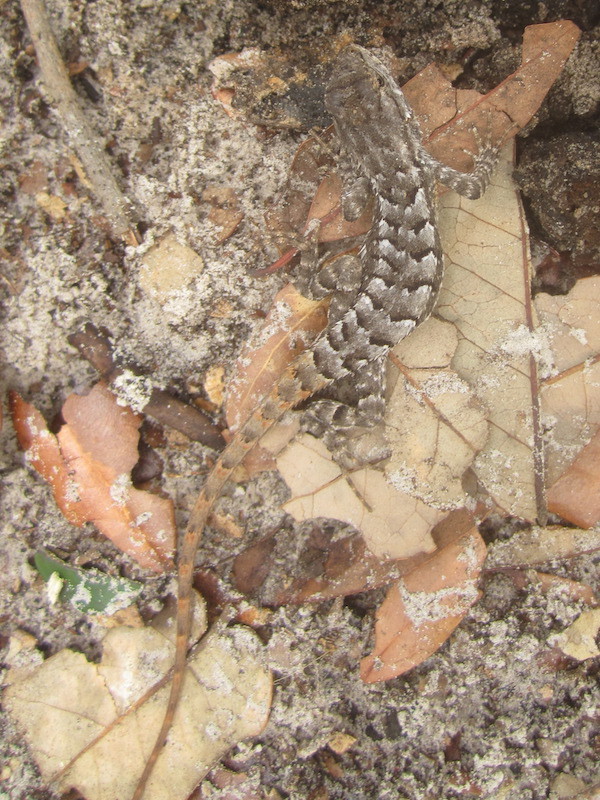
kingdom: Animalia
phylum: Chordata
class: Squamata
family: Phrynosomatidae
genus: Sceloporus
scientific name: Sceloporus consobrinus
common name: Southern prairie lizard
